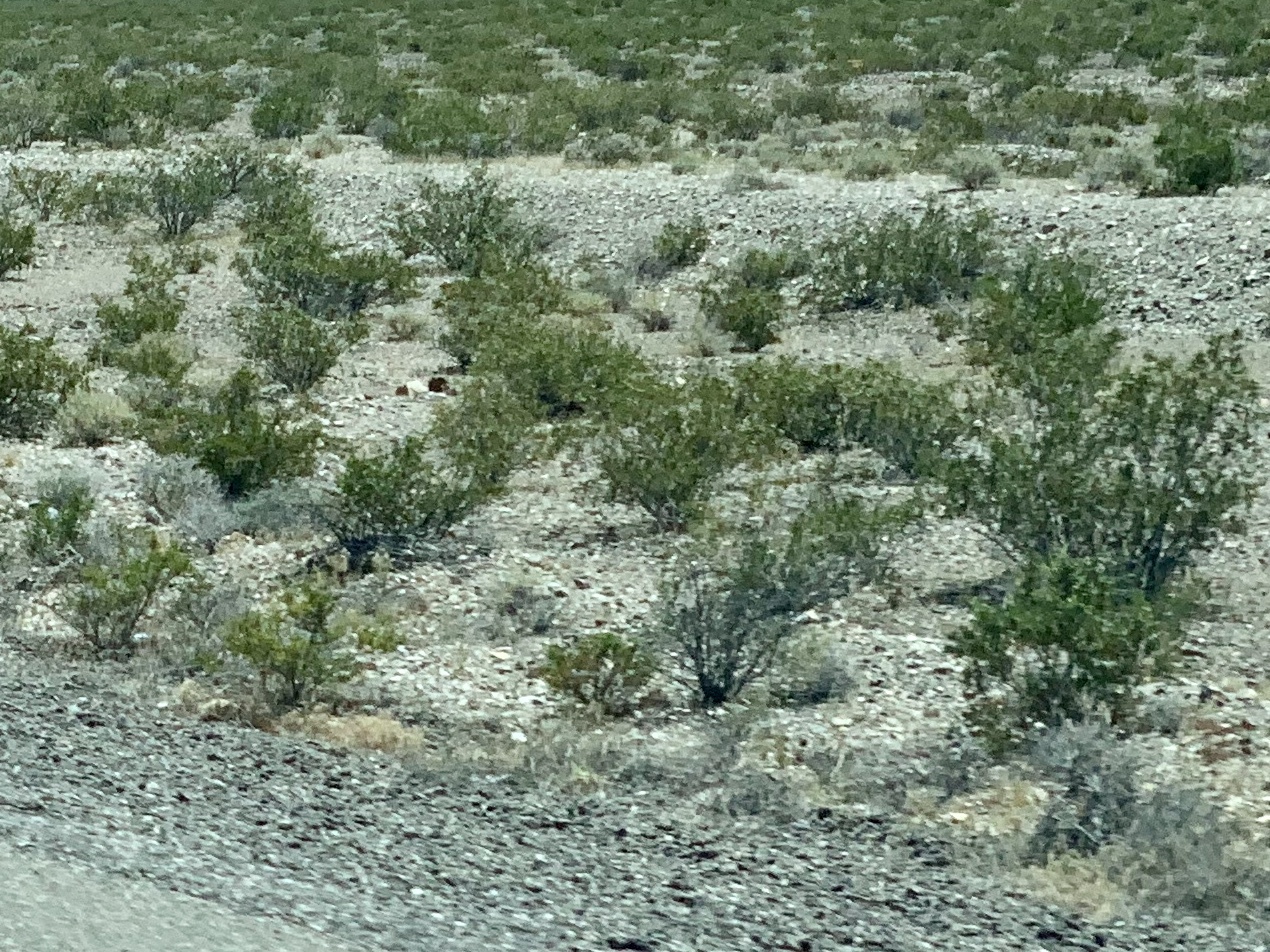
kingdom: Plantae
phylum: Tracheophyta
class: Magnoliopsida
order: Zygophyllales
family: Zygophyllaceae
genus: Larrea
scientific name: Larrea tridentata
